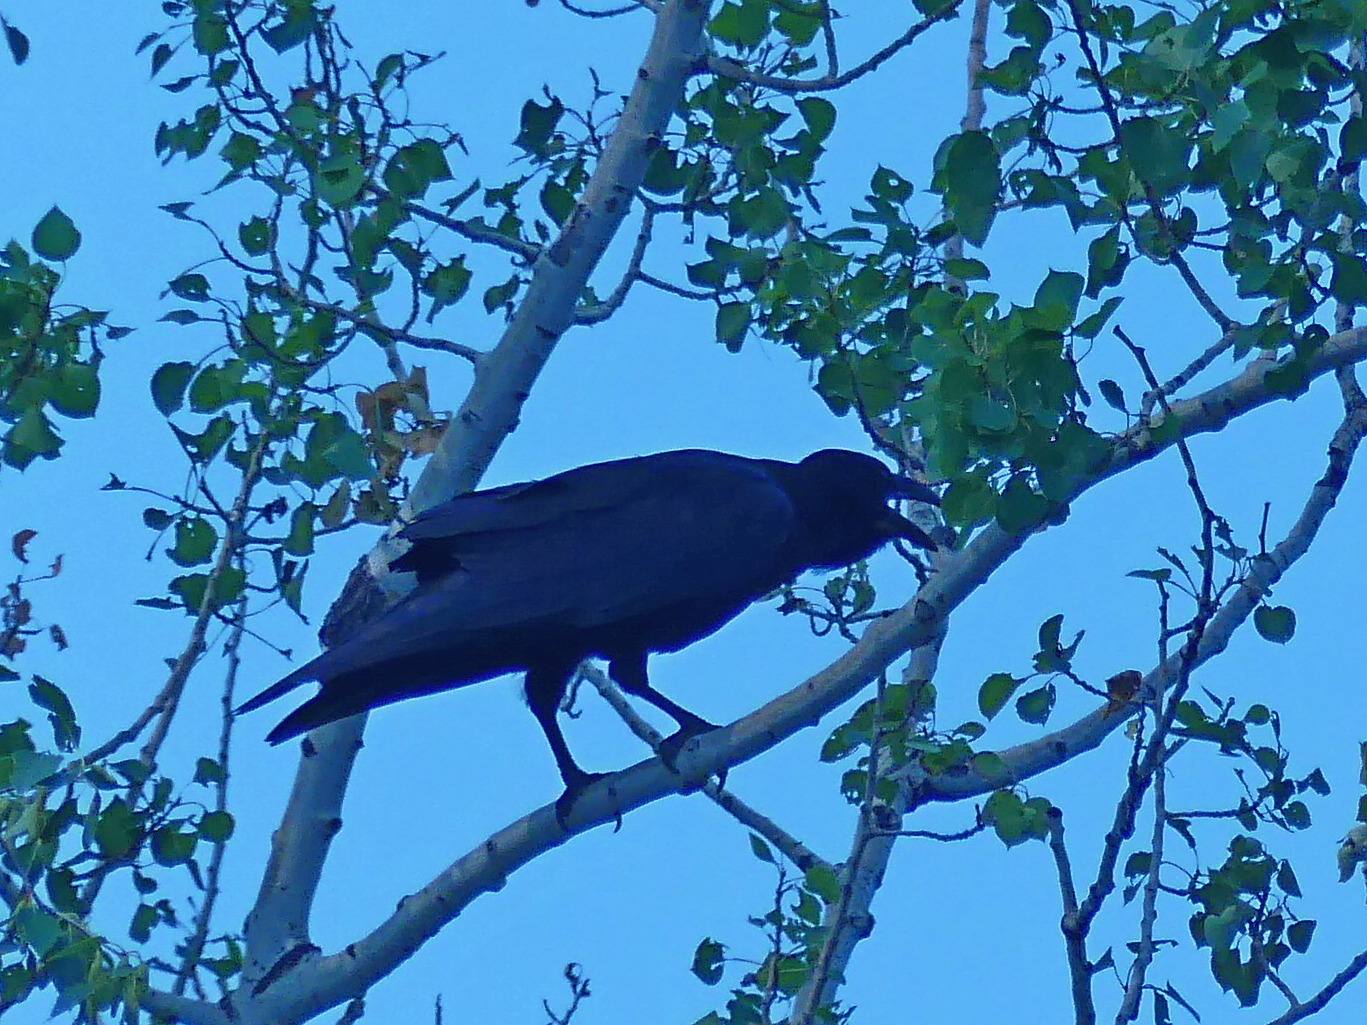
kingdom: Animalia
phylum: Chordata
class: Aves
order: Passeriformes
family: Corvidae
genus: Corvus
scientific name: Corvus corax
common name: Common raven
